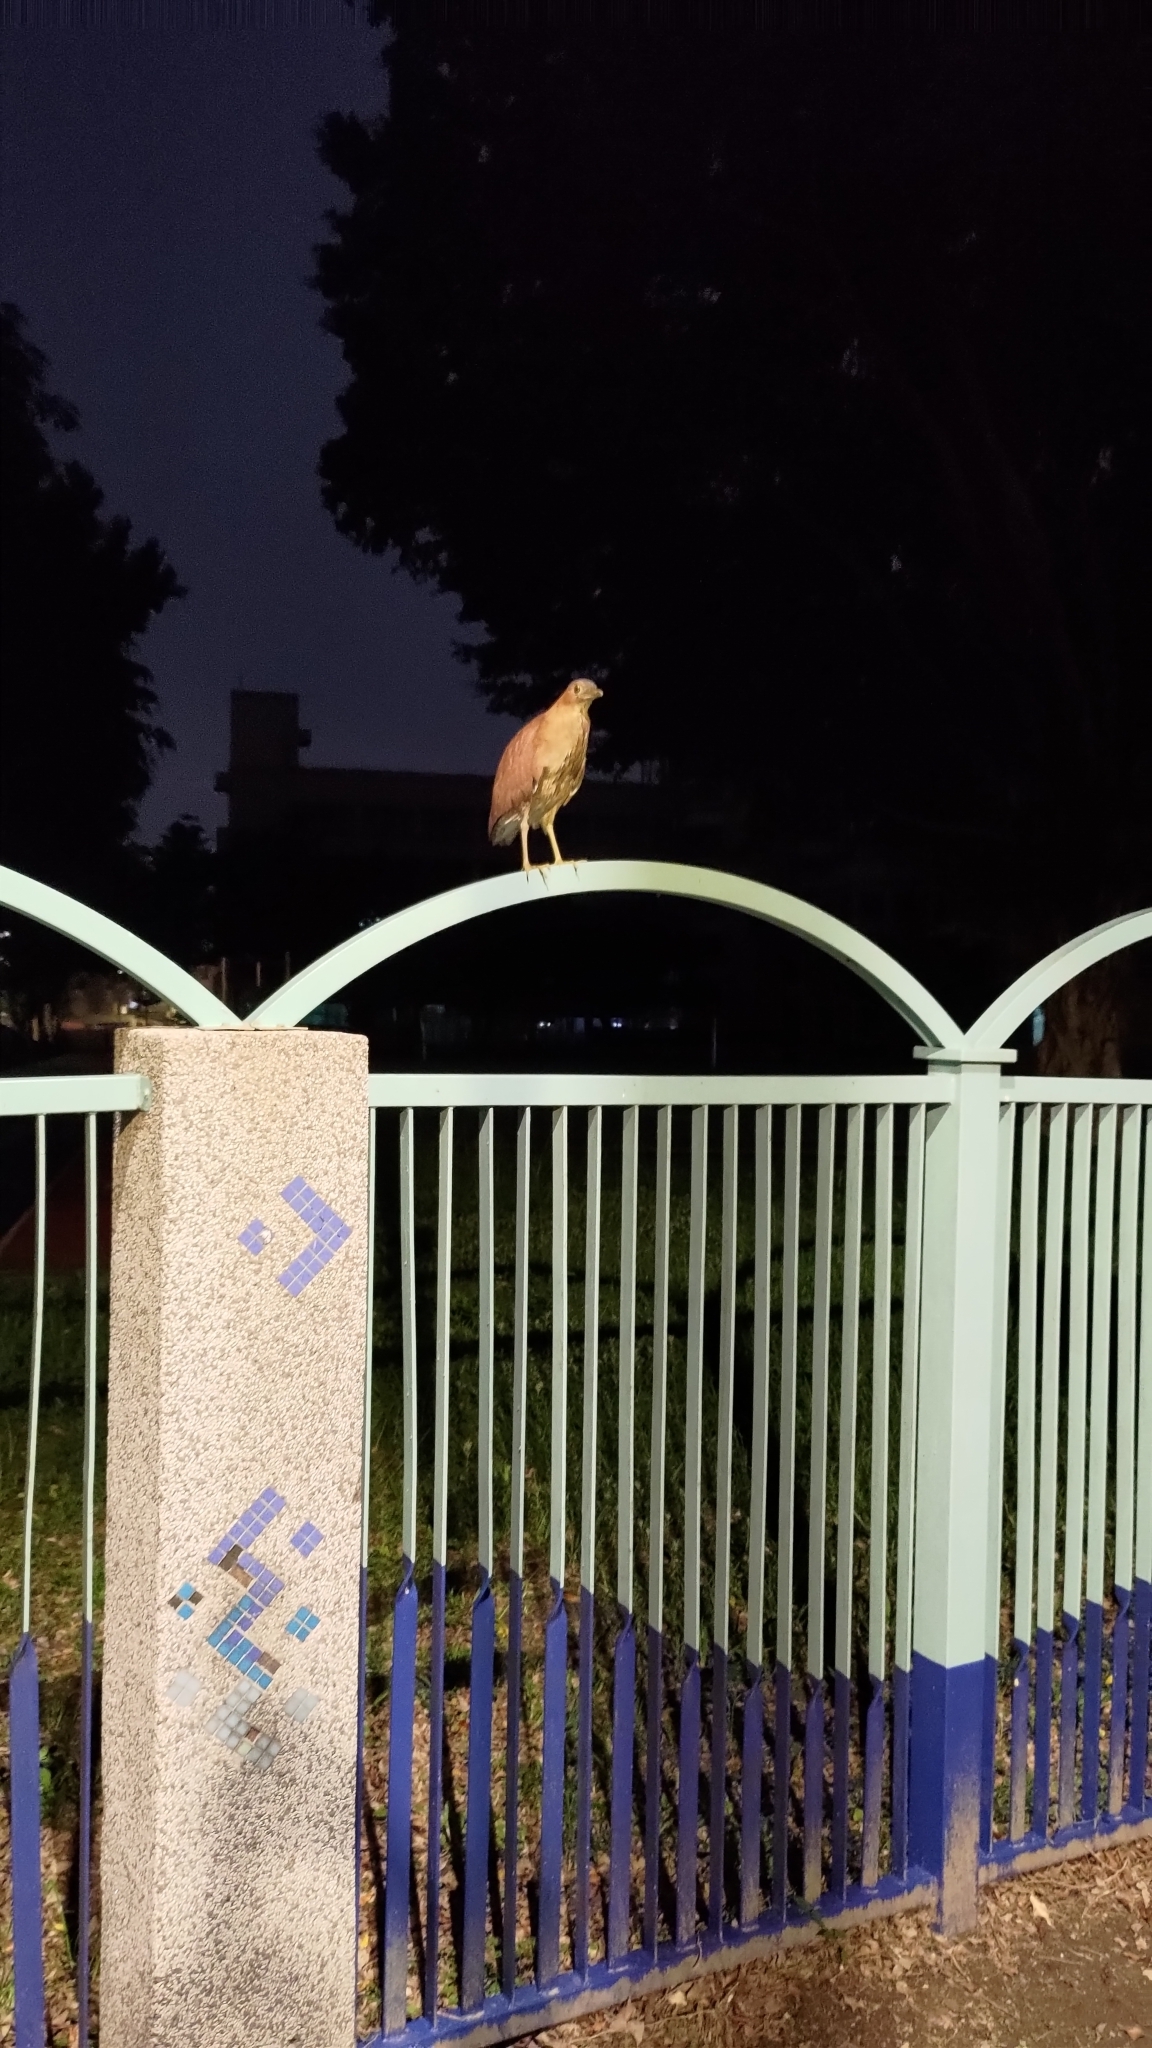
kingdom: Animalia
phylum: Chordata
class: Aves
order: Pelecaniformes
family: Ardeidae
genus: Gorsachius
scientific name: Gorsachius melanolophus
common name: Malayan night heron
